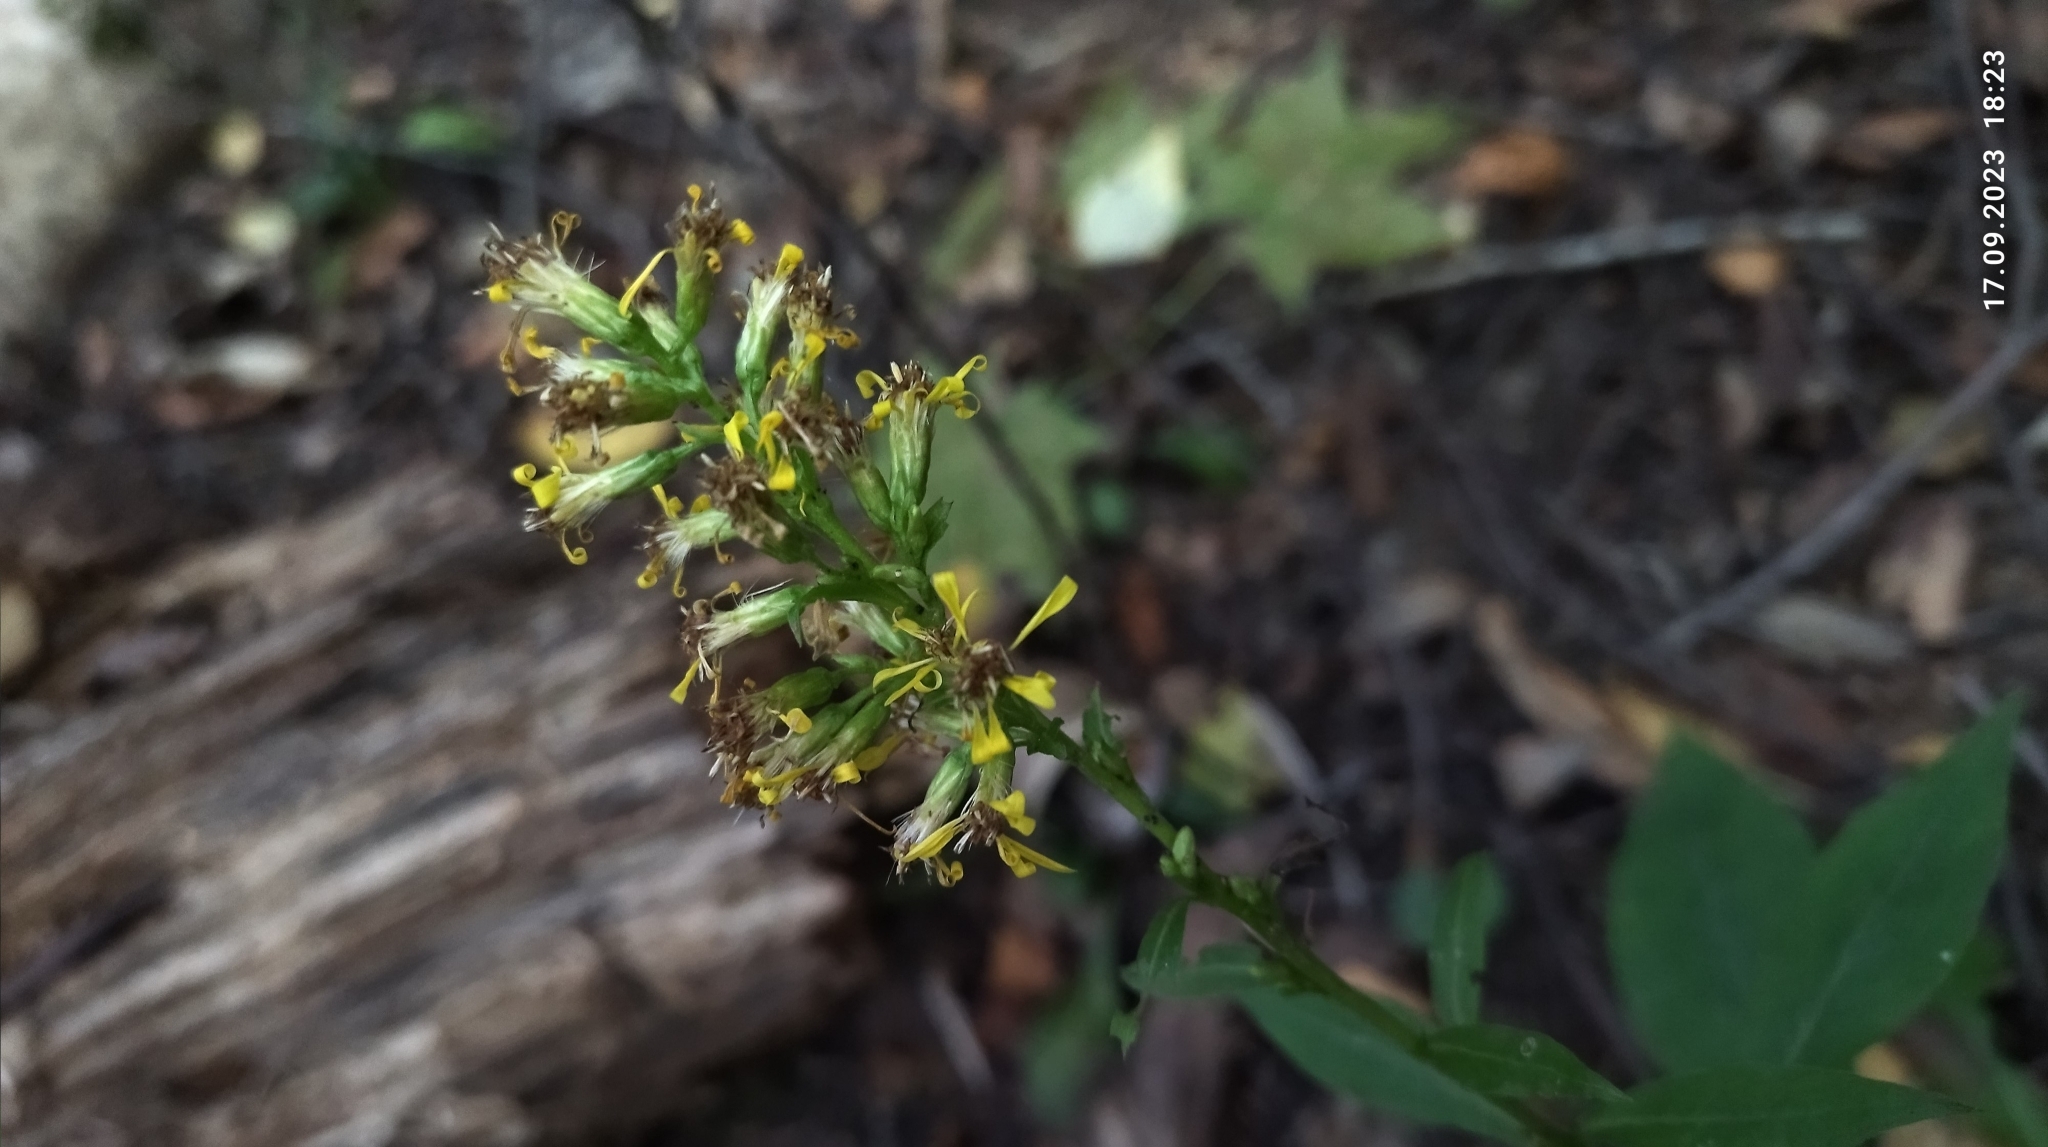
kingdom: Plantae
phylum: Tracheophyta
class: Magnoliopsida
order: Asterales
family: Asteraceae
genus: Solidago
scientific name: Solidago virgaurea
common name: Goldenrod
